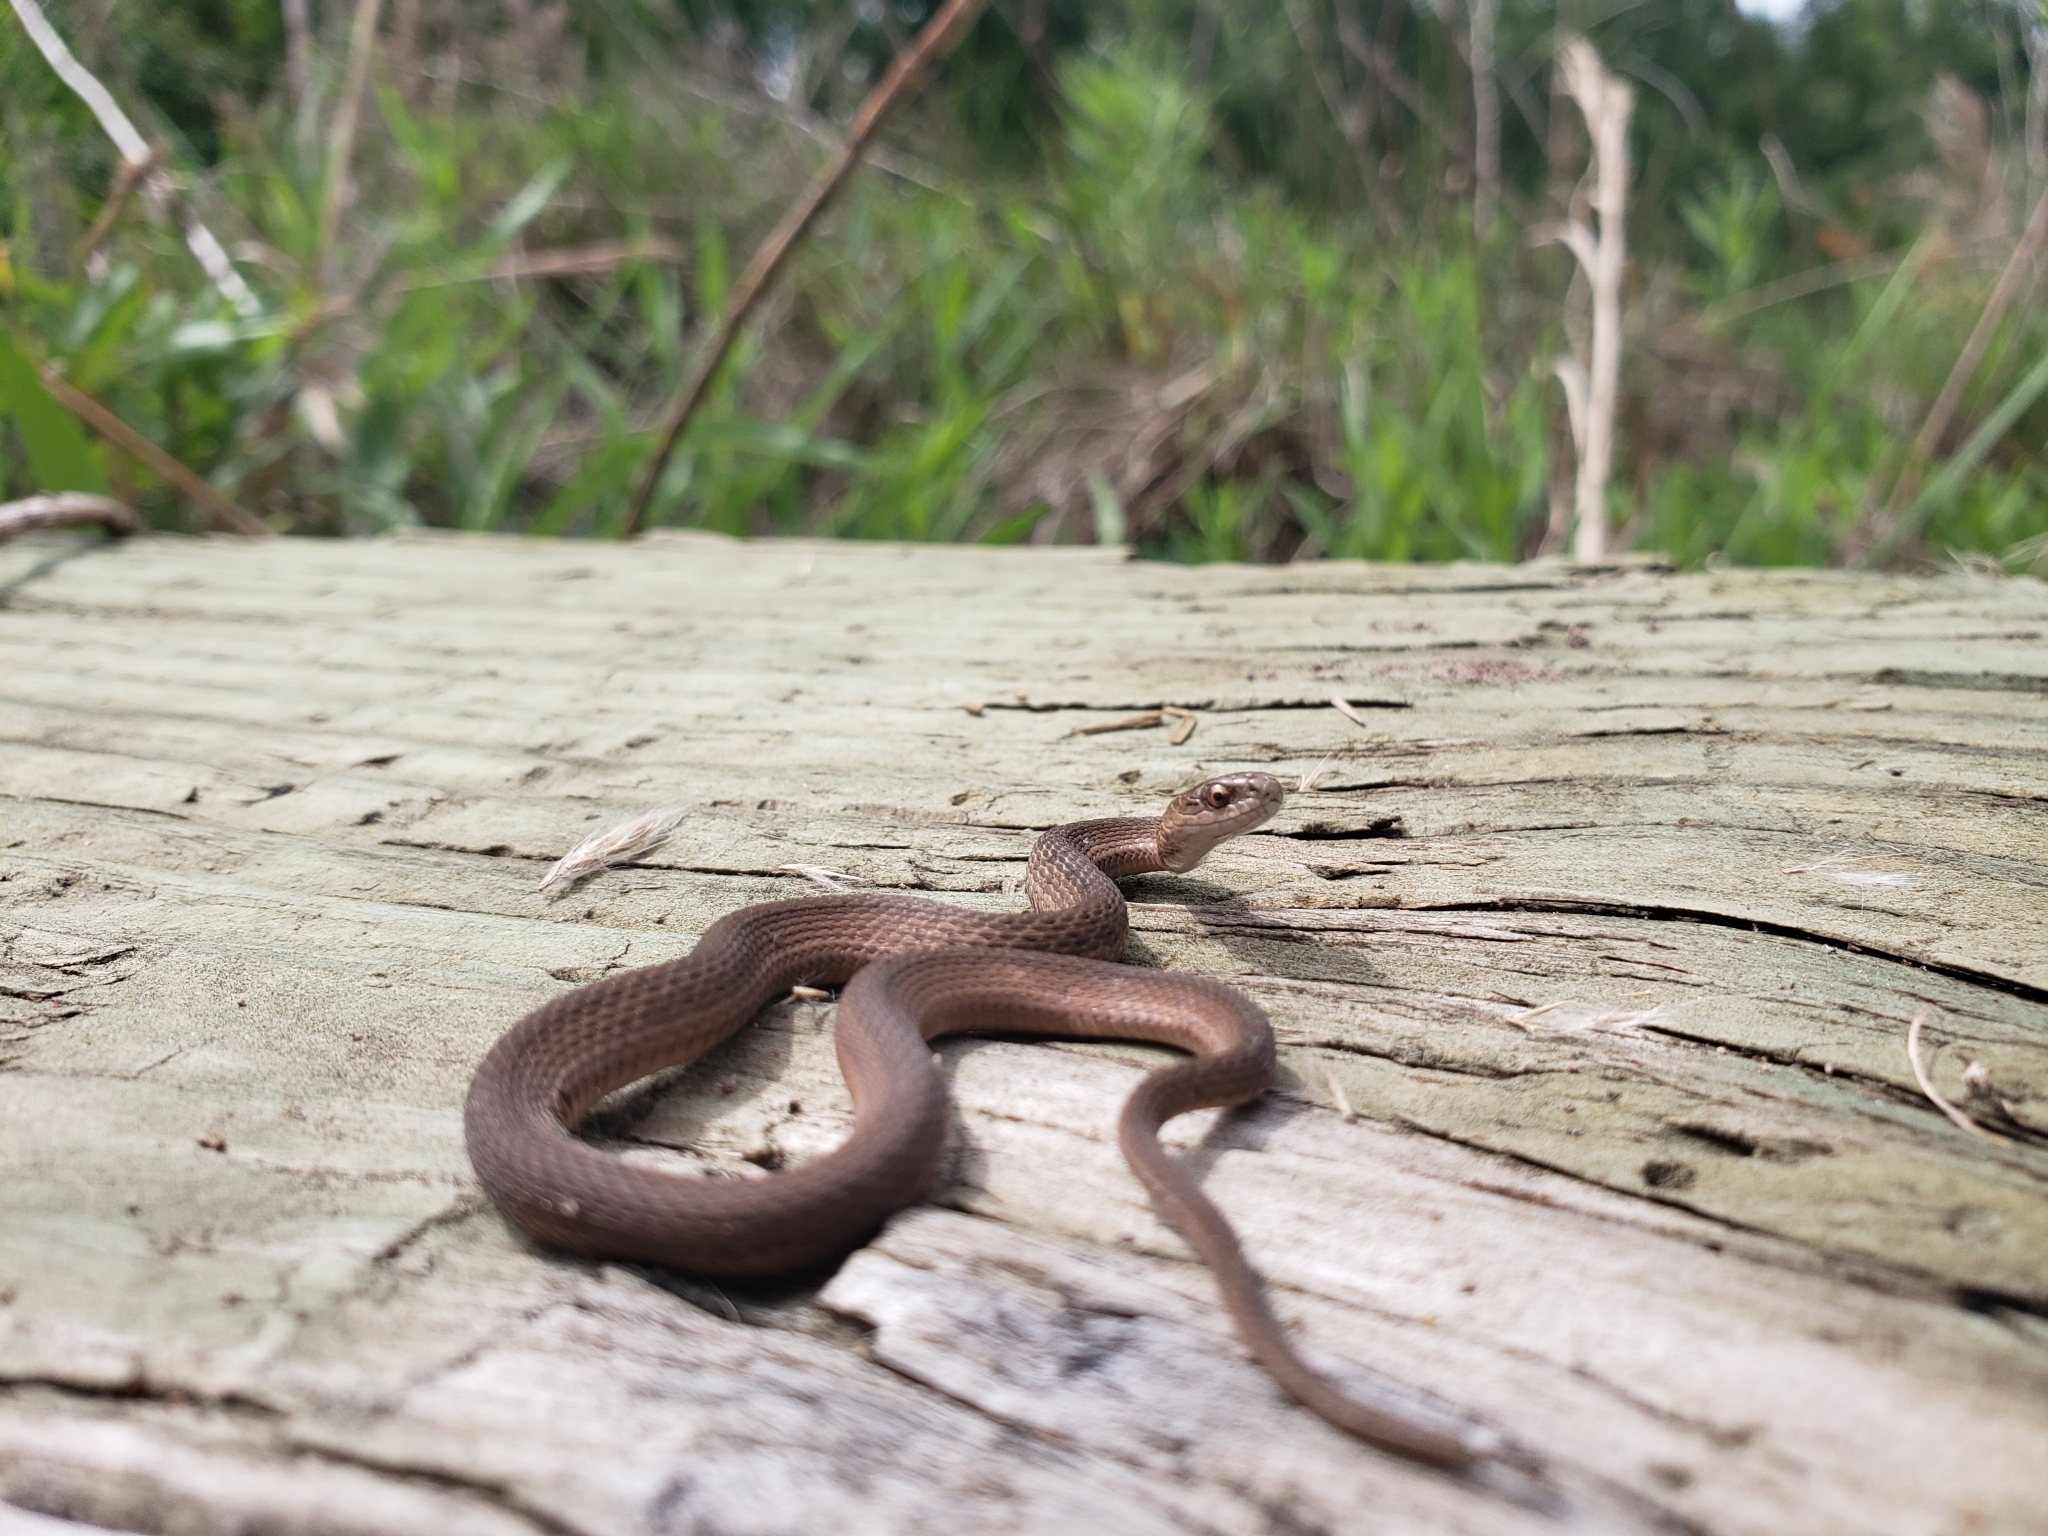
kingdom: Animalia
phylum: Chordata
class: Squamata
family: Colubridae
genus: Storeria
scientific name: Storeria dekayi
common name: (dekay’s) brown snake
